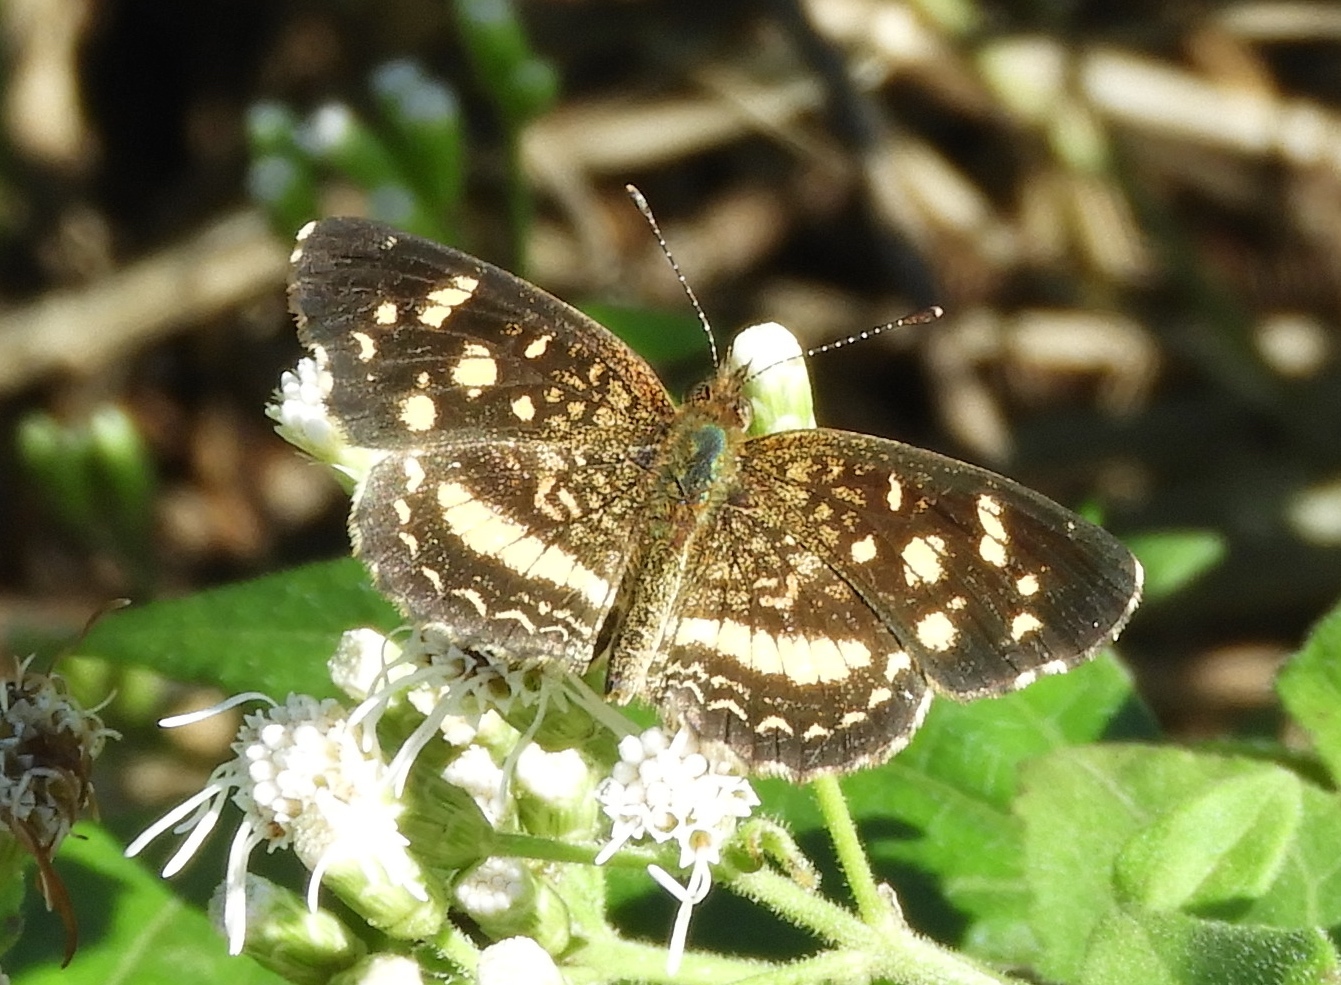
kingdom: Animalia
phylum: Arthropoda
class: Insecta
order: Lepidoptera
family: Nymphalidae
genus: Anthanassa
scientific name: Anthanassa tulcis
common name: Pale-banded crescent
